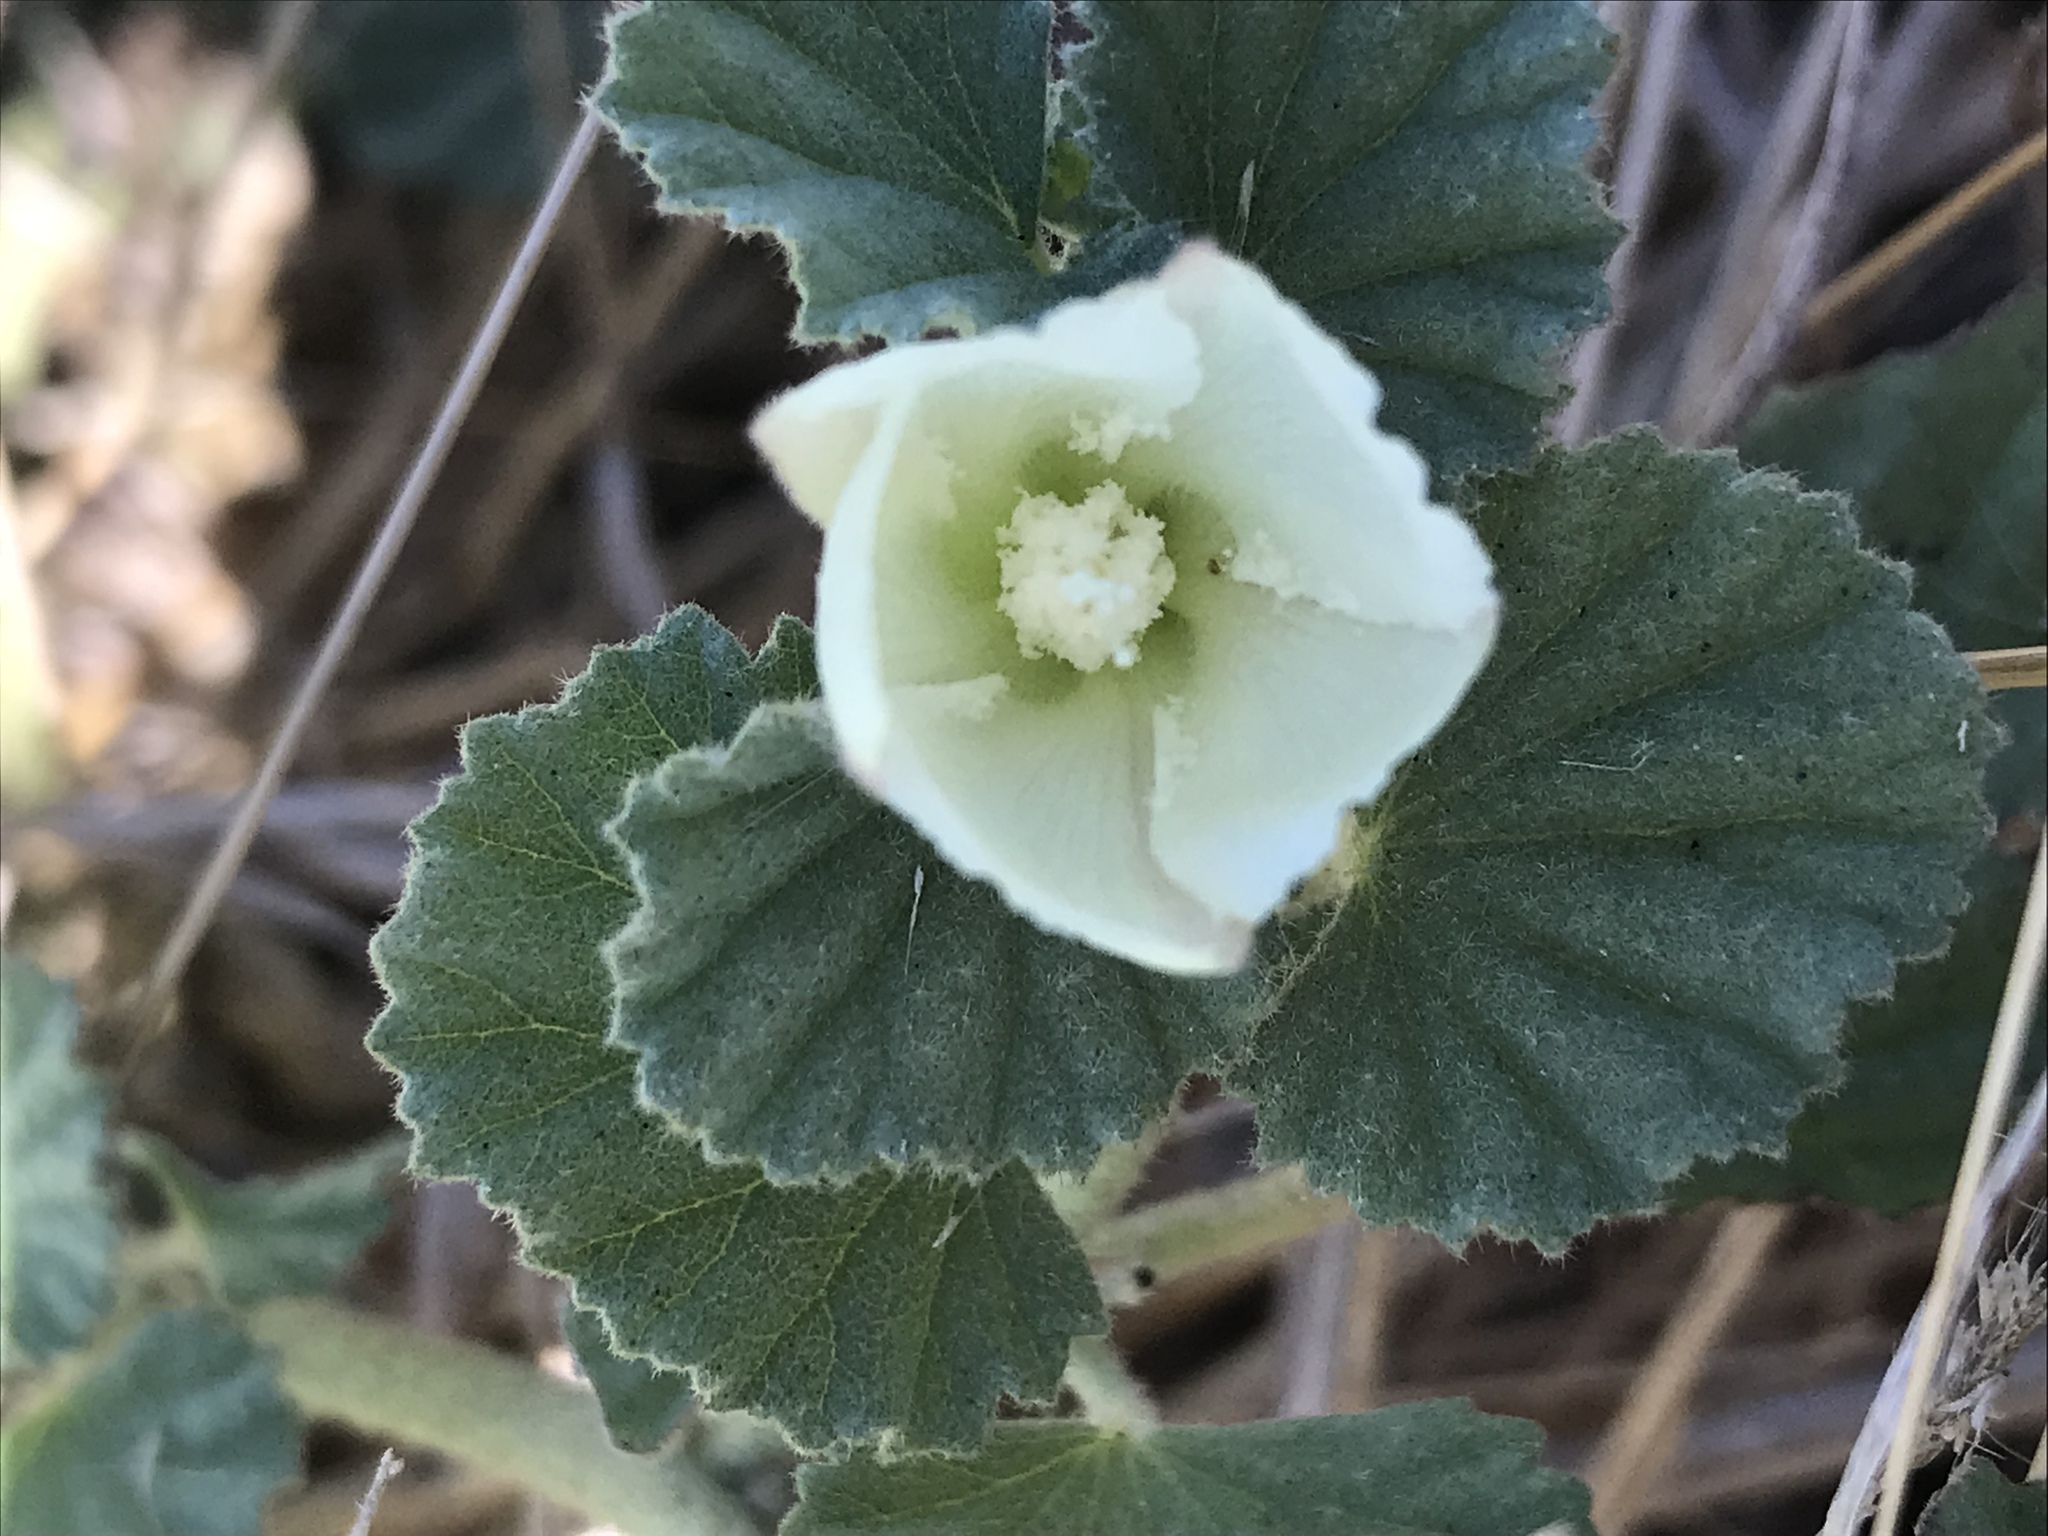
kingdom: Plantae
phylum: Tracheophyta
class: Magnoliopsida
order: Malvales
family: Malvaceae
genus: Malvella
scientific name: Malvella leprosa
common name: Alkali-mallow
